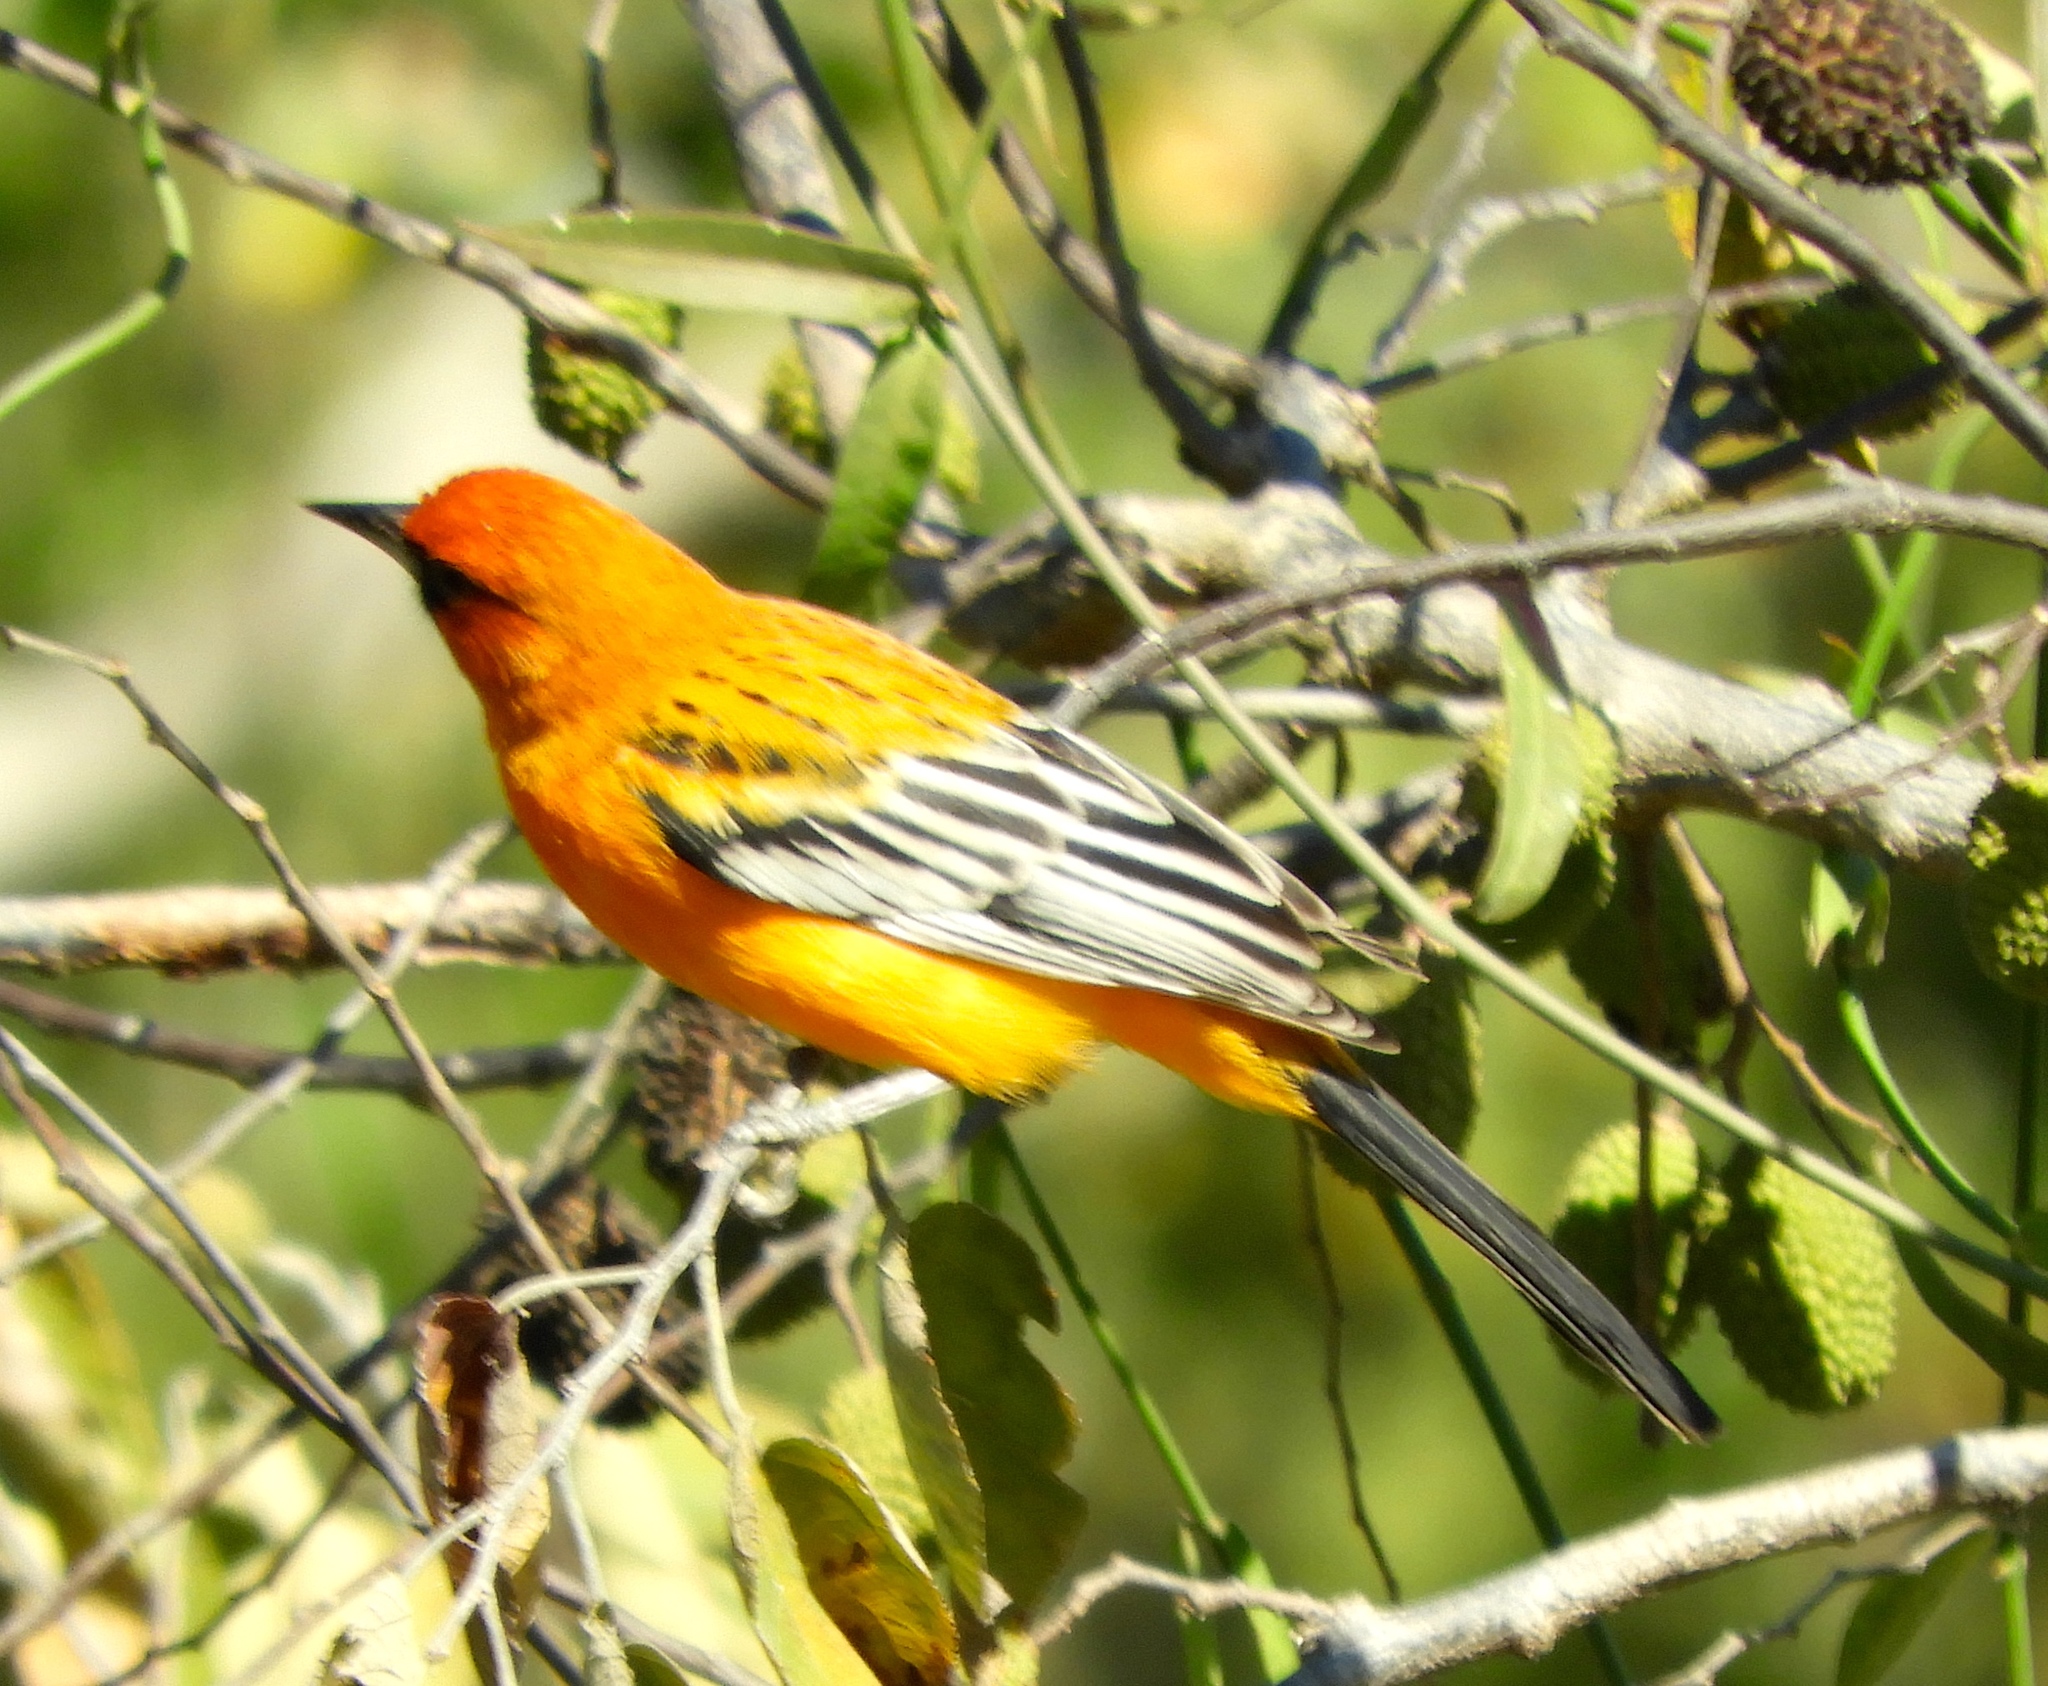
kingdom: Animalia
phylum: Chordata
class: Aves
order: Passeriformes
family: Icteridae
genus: Icterus
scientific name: Icterus pustulatus
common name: Streak-backed oriole
